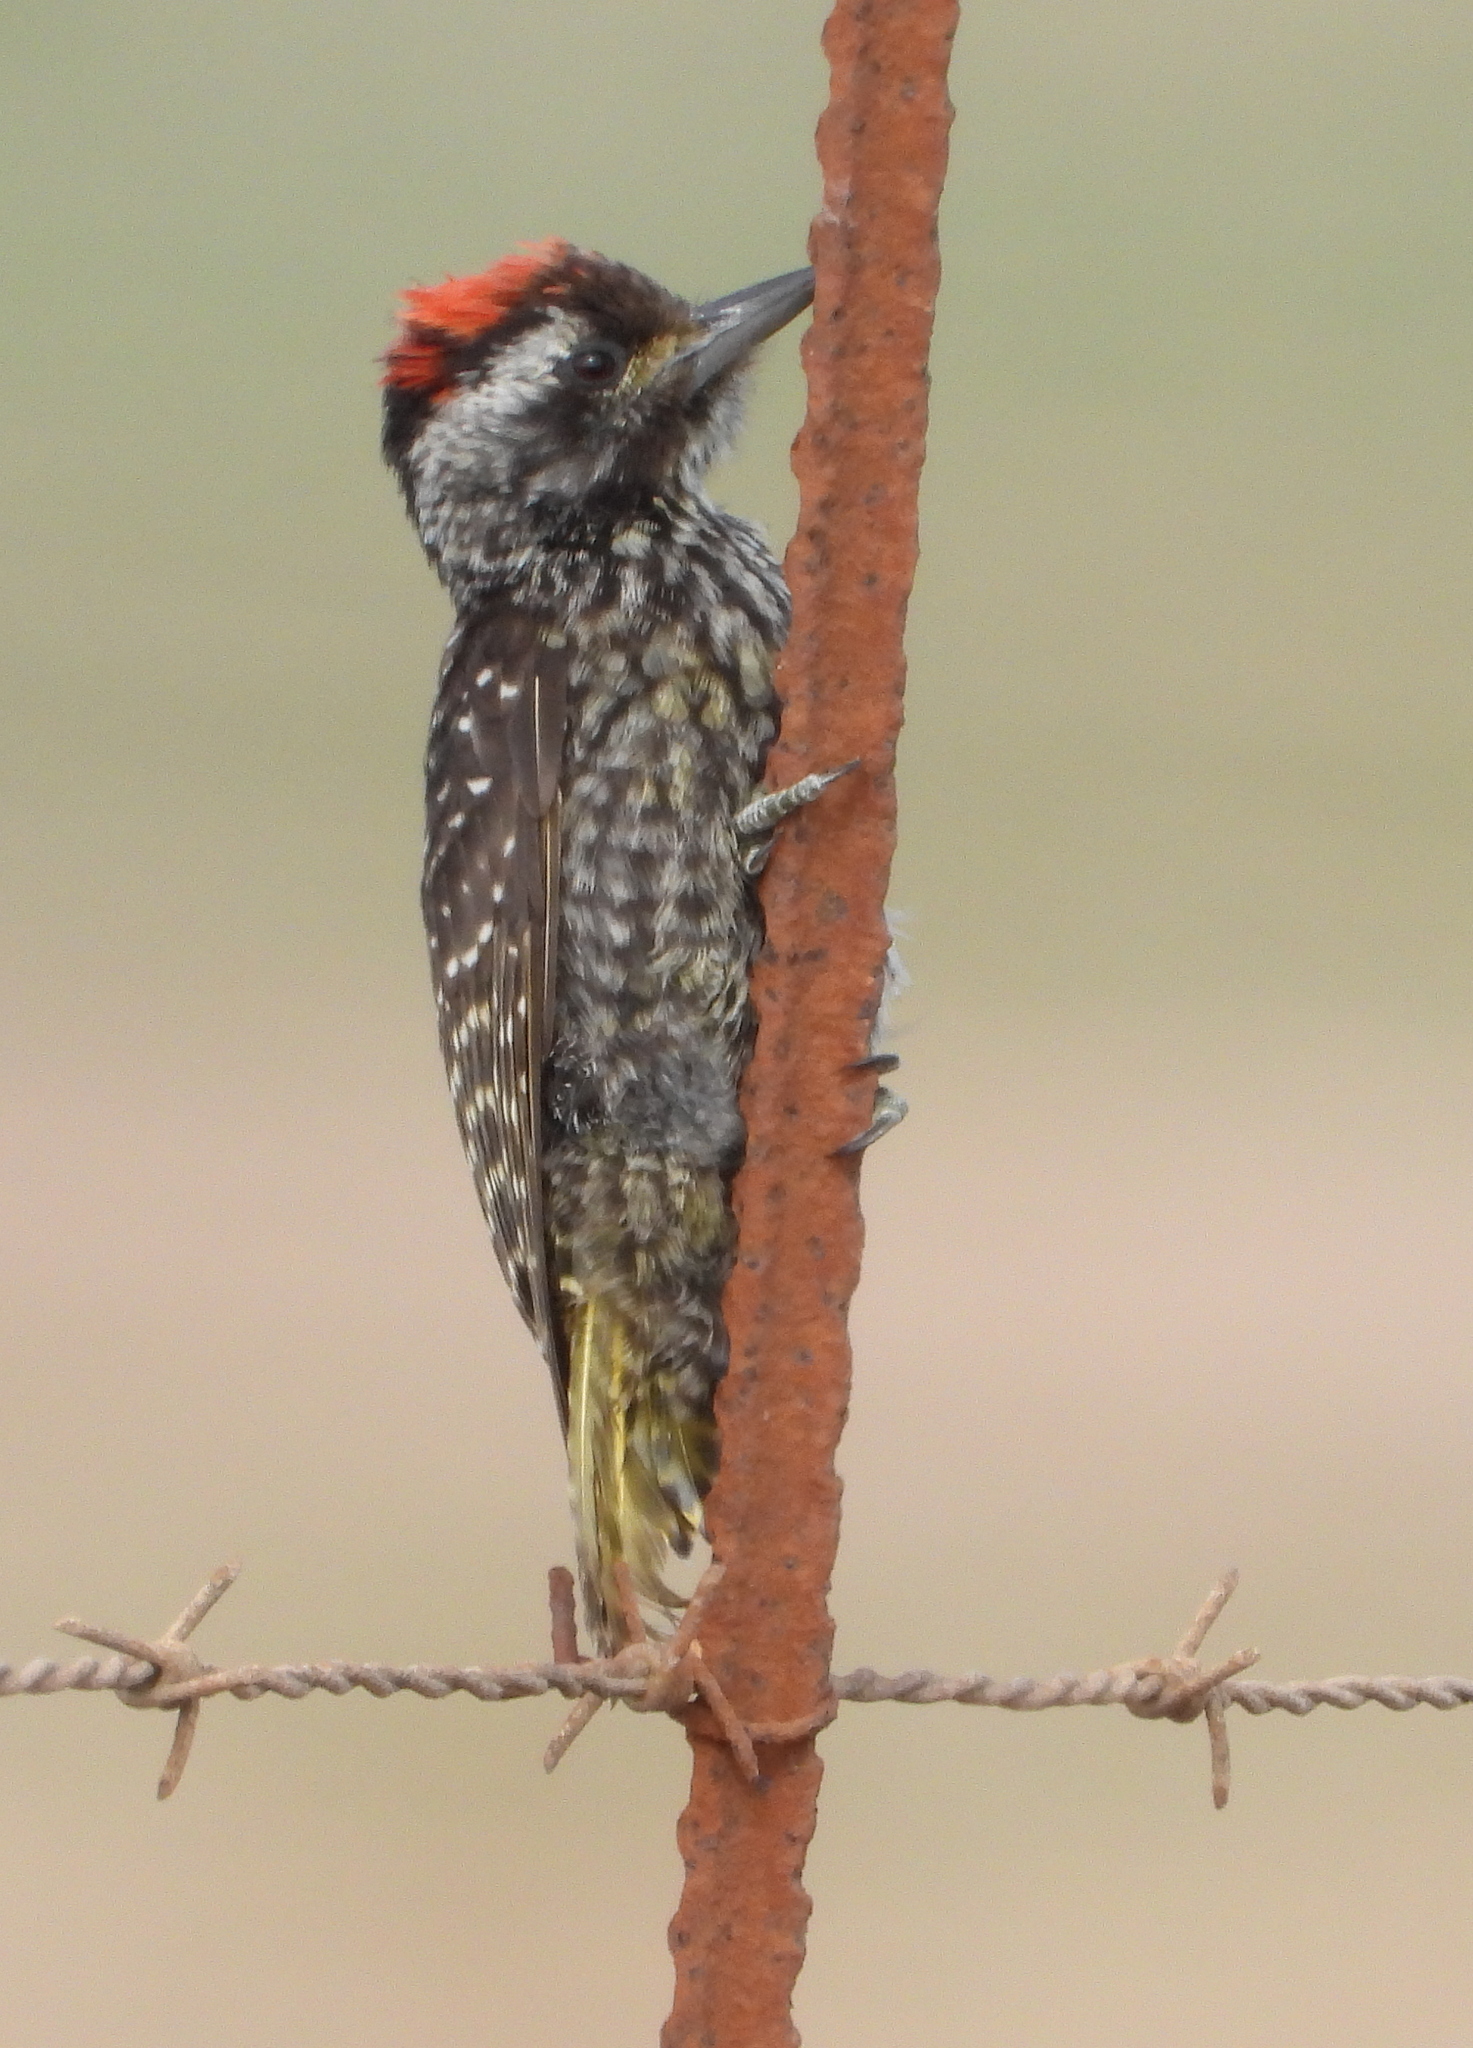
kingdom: Animalia
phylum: Chordata
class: Aves
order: Piciformes
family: Picidae
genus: Dendropicos
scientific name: Dendropicos fuscescens
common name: Cardinal woodpecker
